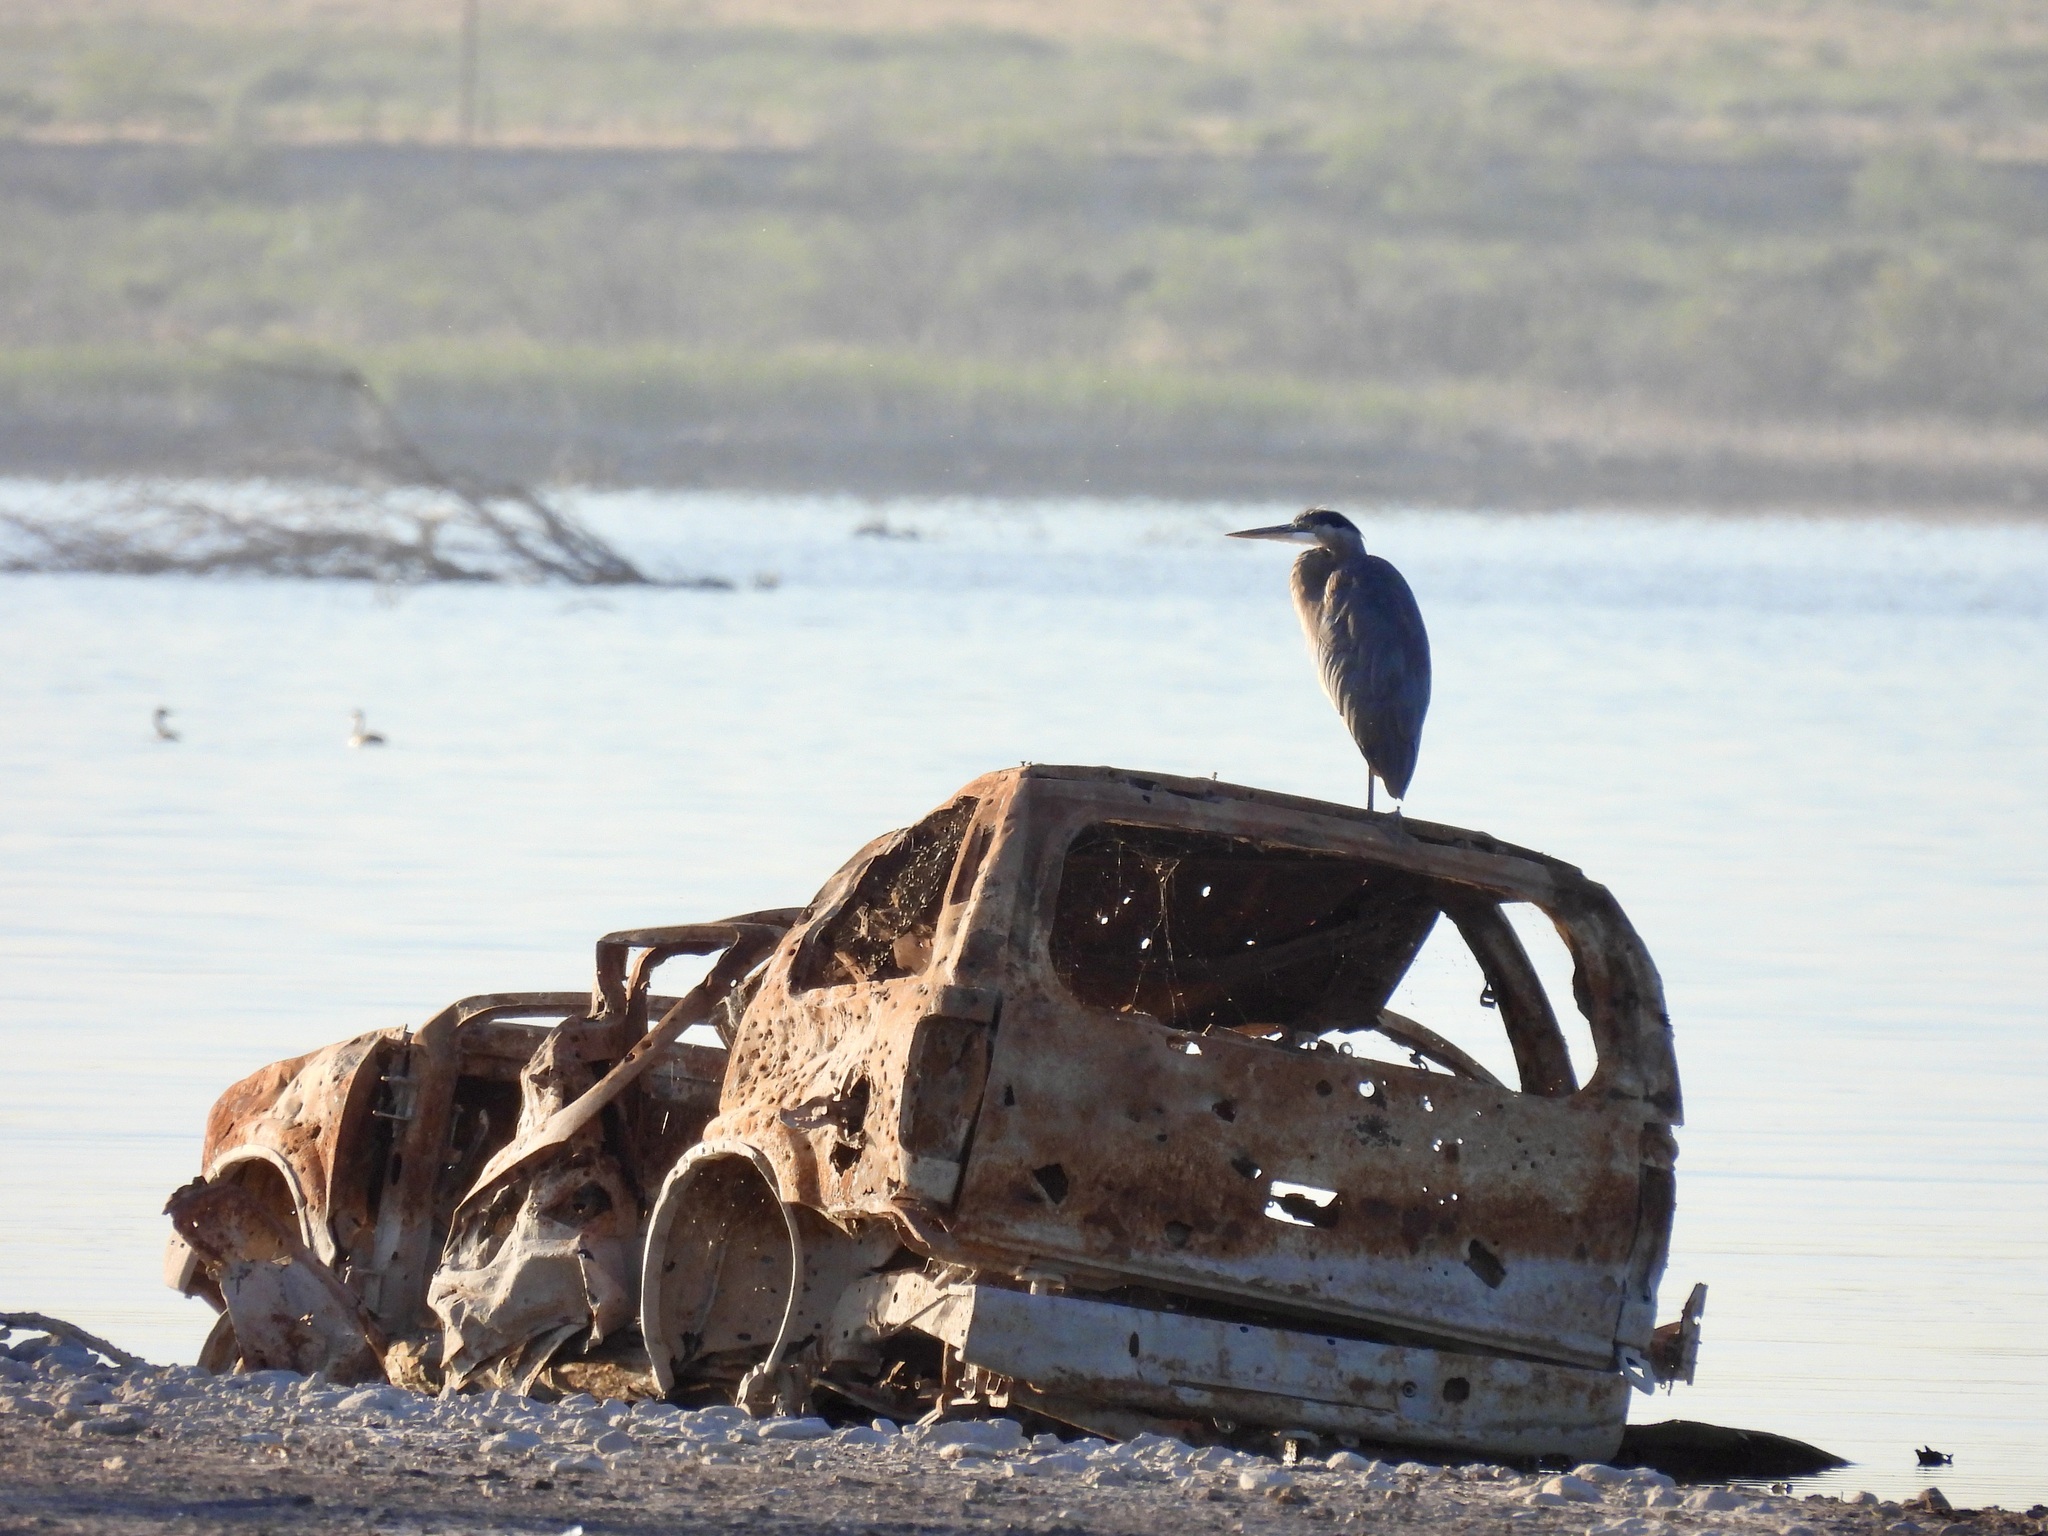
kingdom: Animalia
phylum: Chordata
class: Aves
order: Pelecaniformes
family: Ardeidae
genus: Ardea
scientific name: Ardea herodias
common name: Great blue heron
